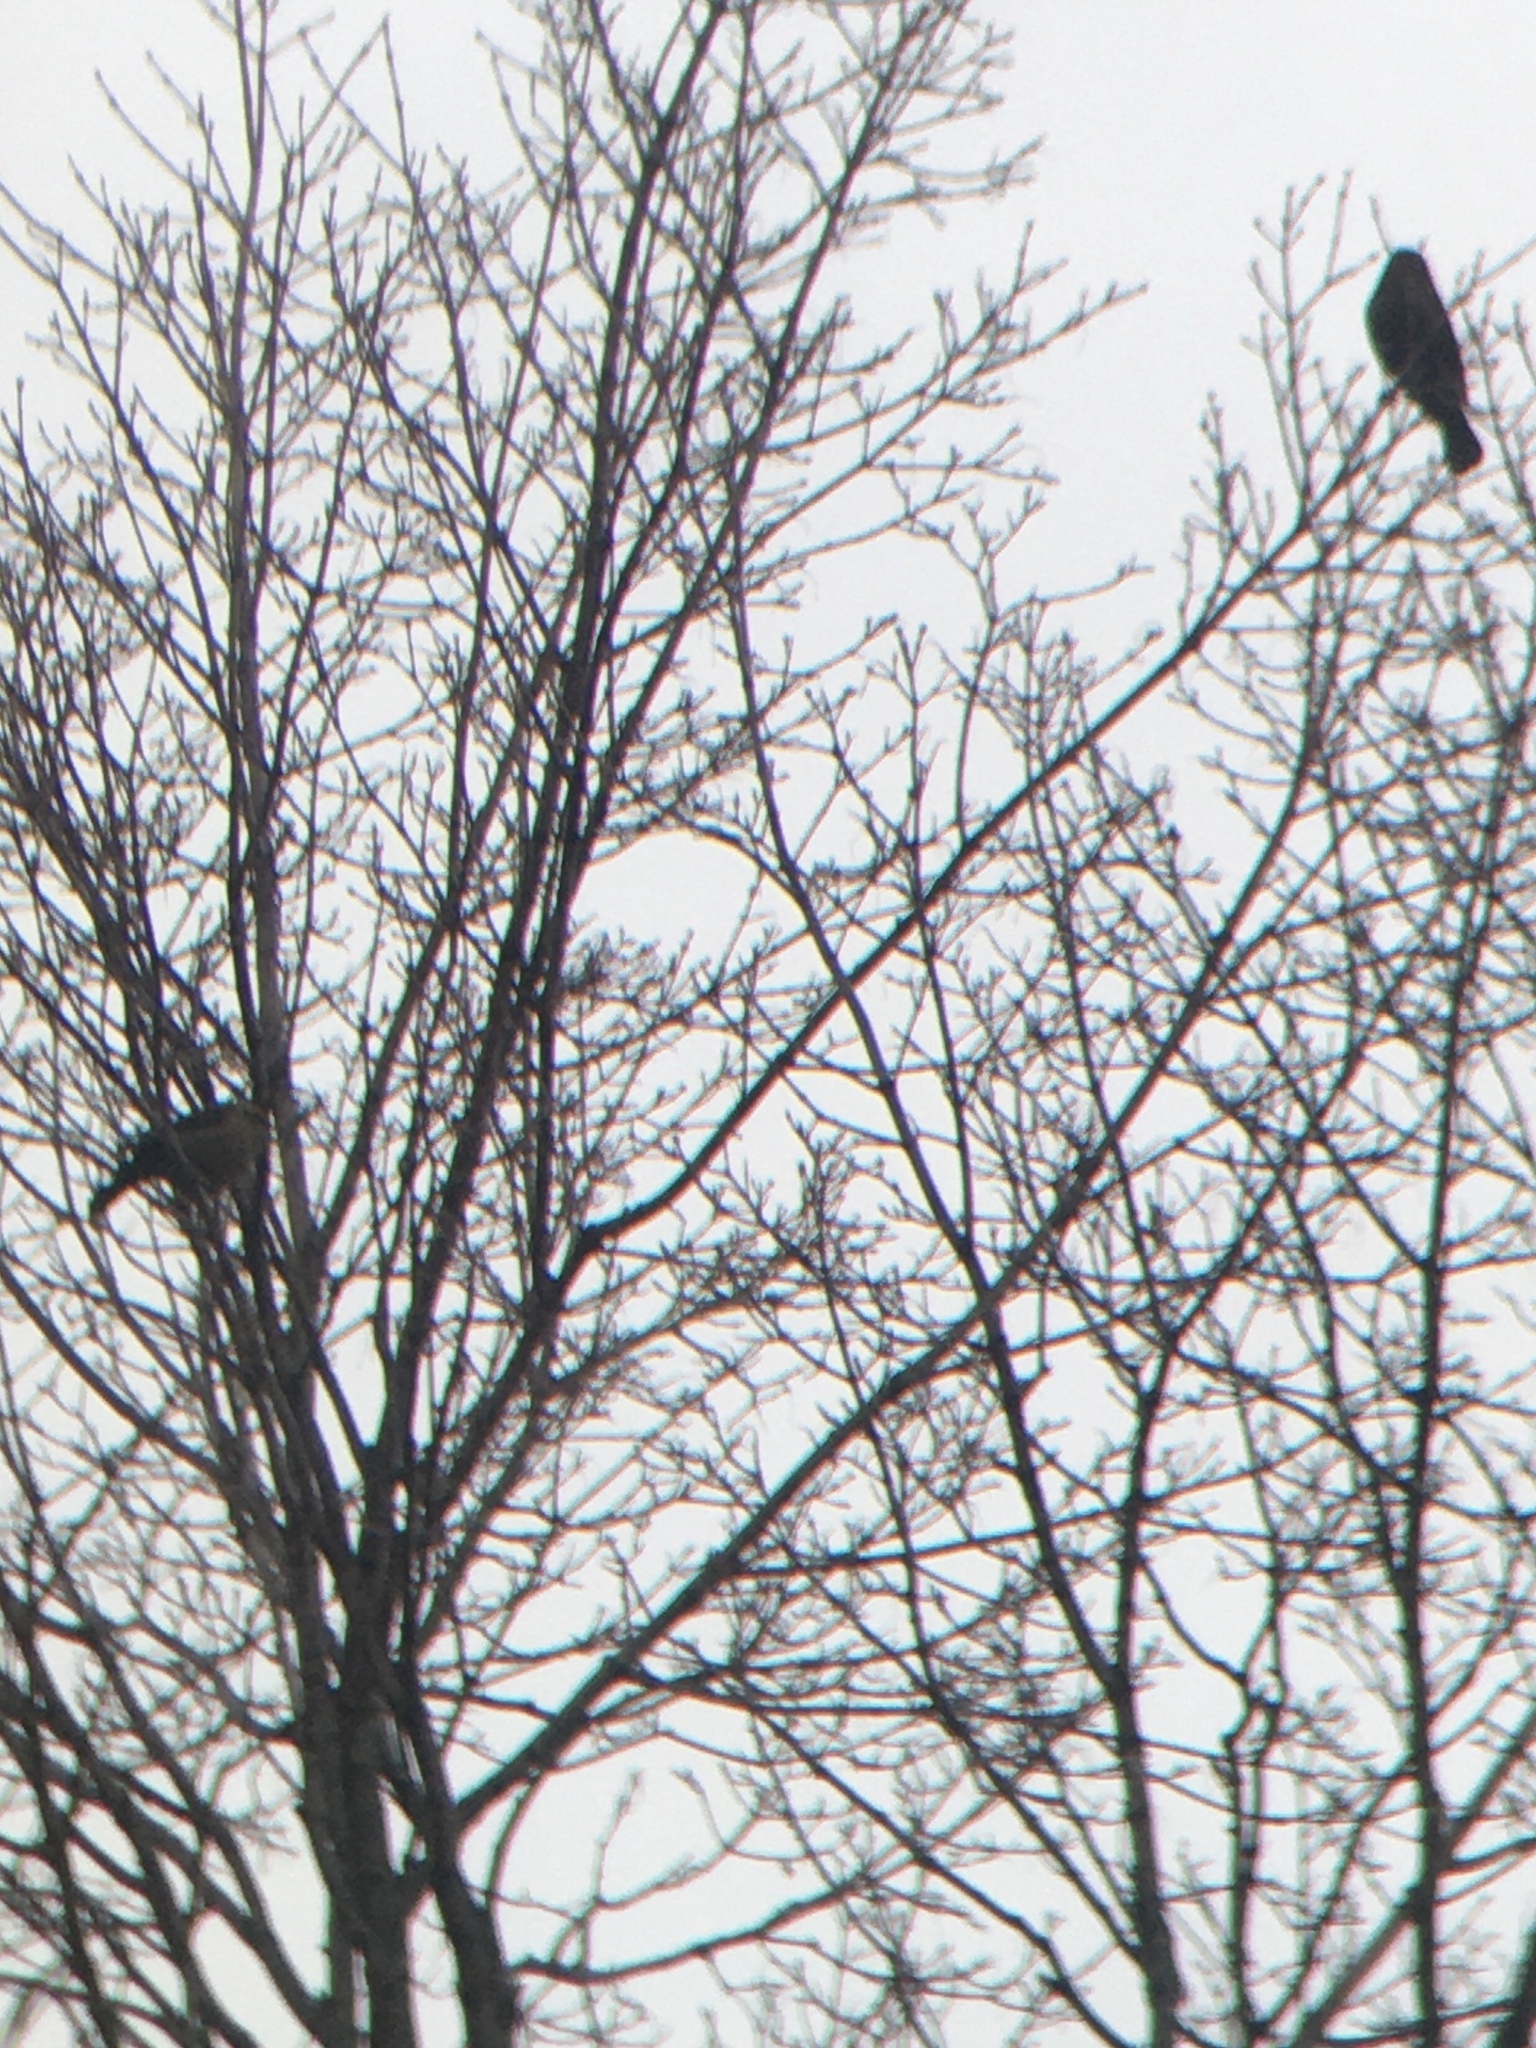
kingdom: Animalia
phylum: Chordata
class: Aves
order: Passeriformes
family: Icteridae
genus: Euphagus
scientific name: Euphagus carolinus
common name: Rusty blackbird
